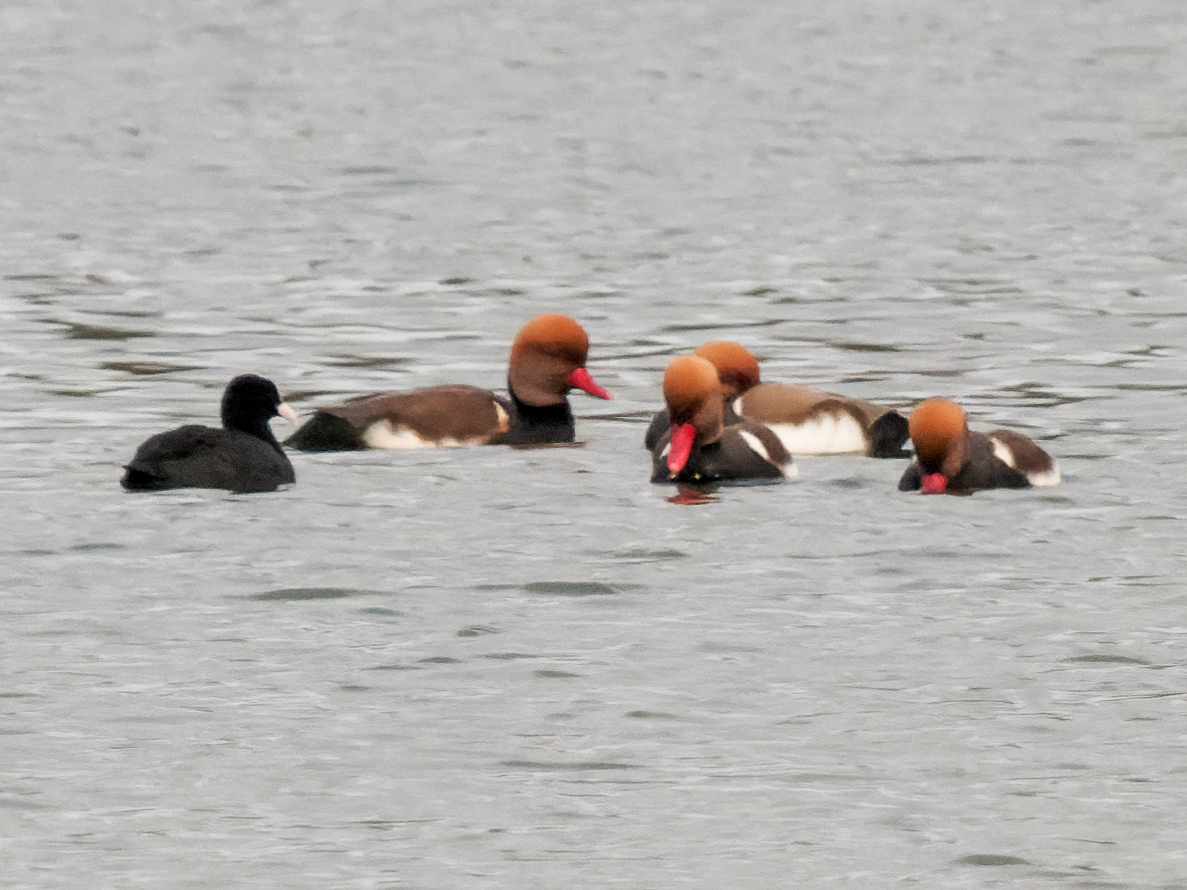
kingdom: Animalia
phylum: Chordata
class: Aves
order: Anseriformes
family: Anatidae
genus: Netta
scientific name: Netta rufina
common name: Red-crested pochard
